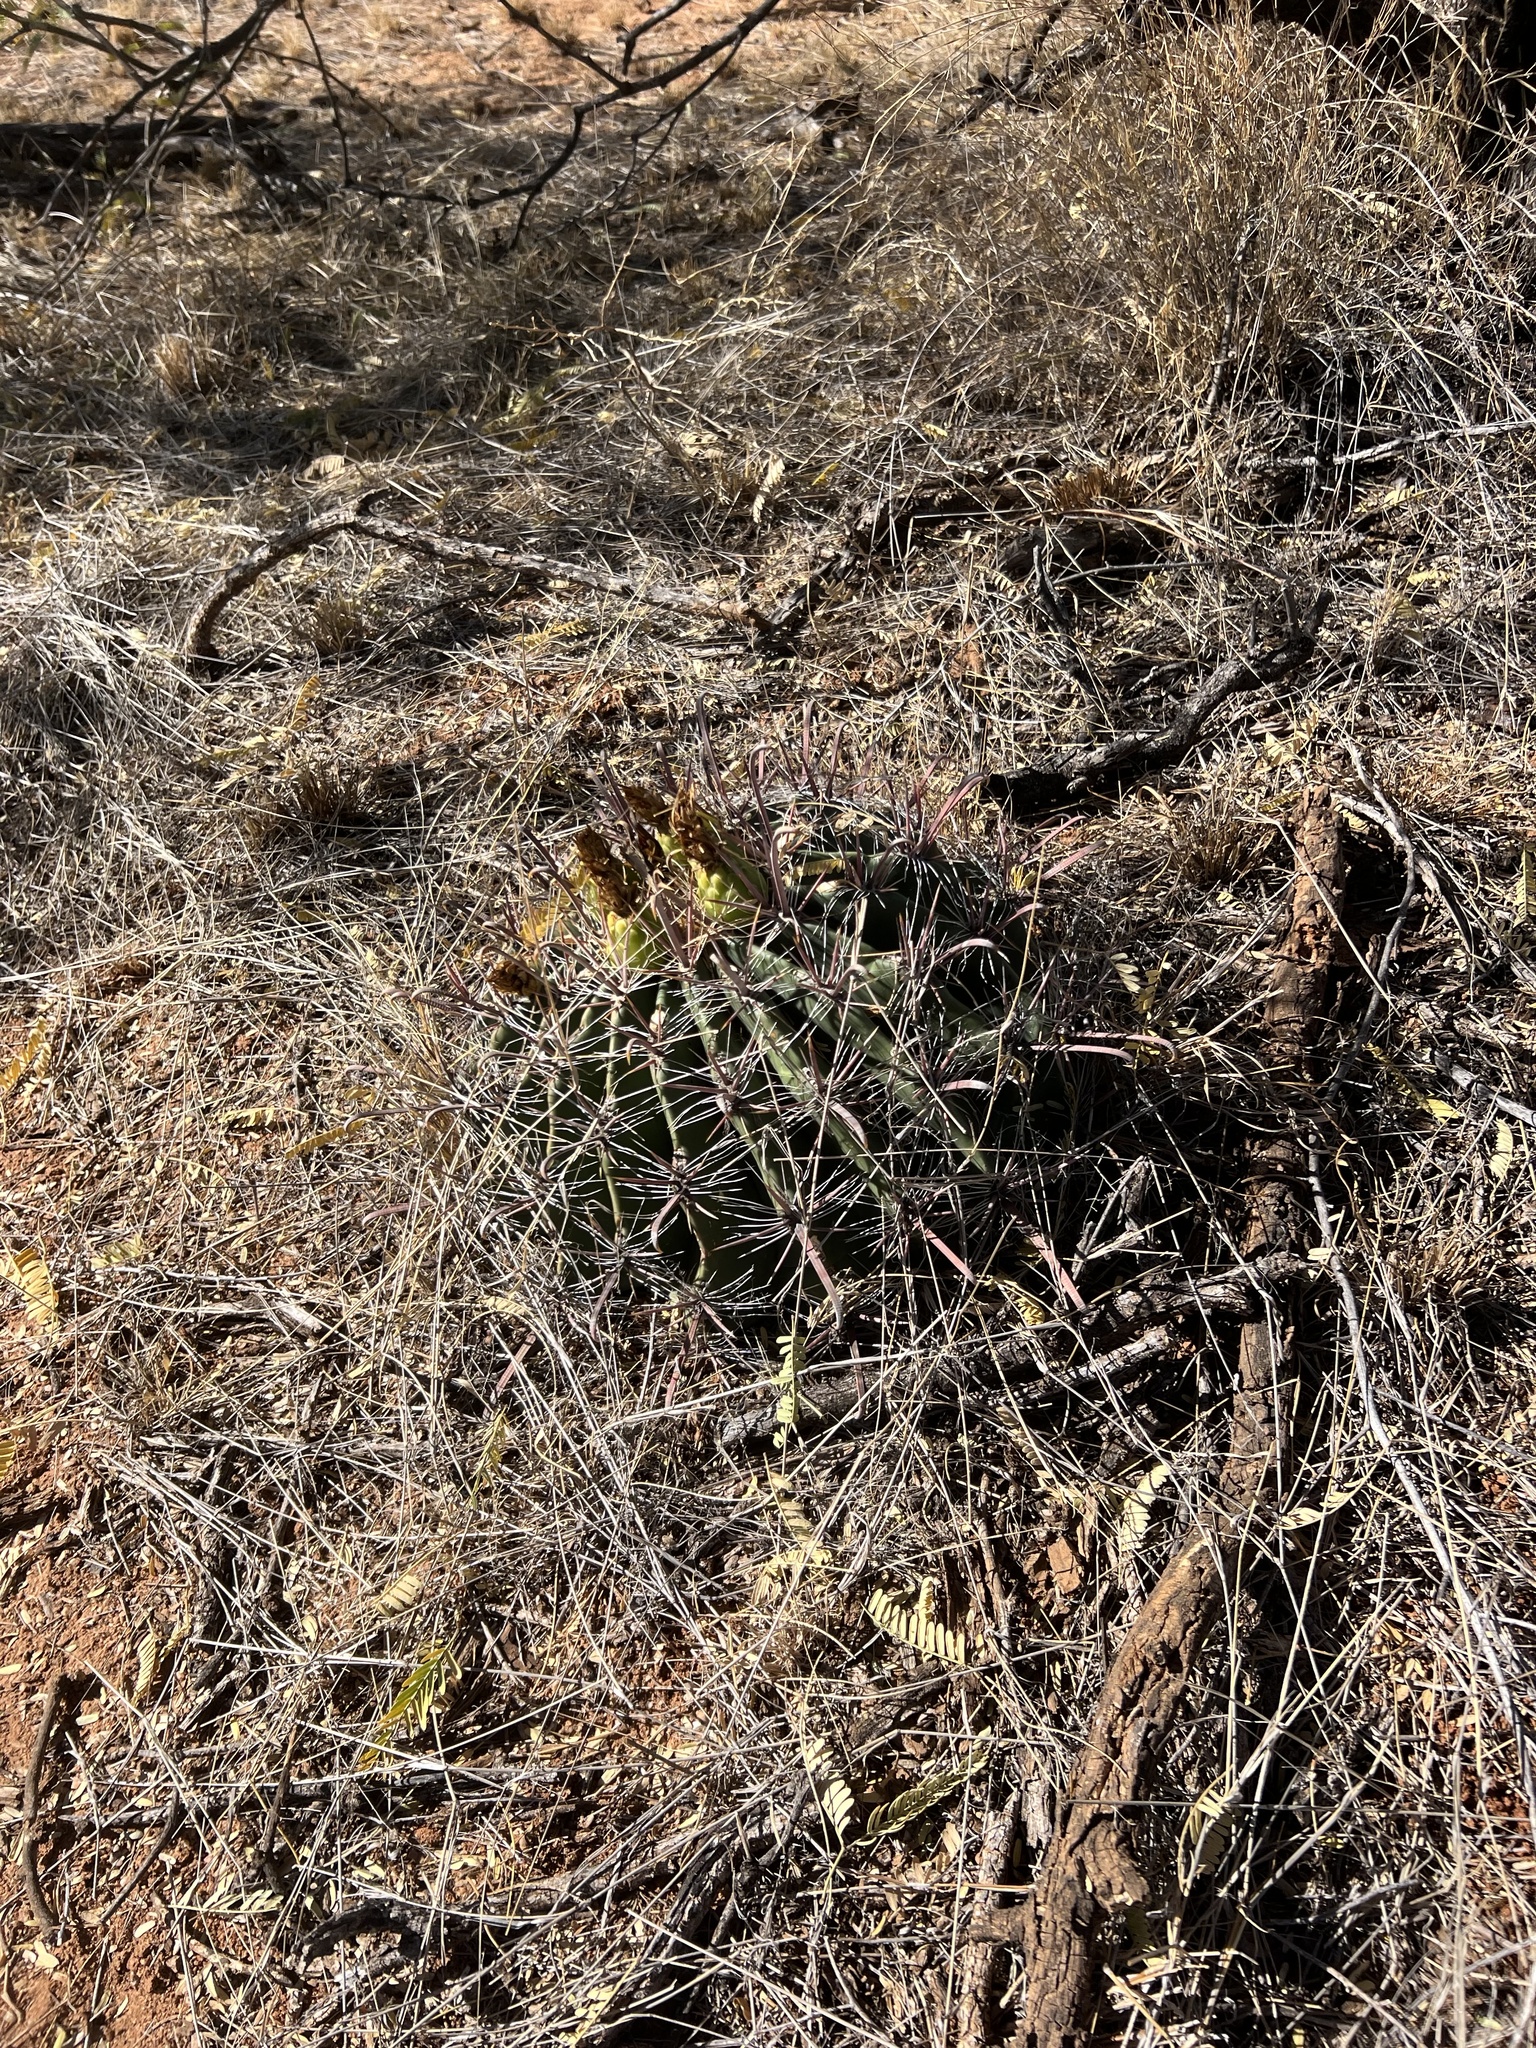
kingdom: Plantae
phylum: Tracheophyta
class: Magnoliopsida
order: Caryophyllales
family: Cactaceae
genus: Ferocactus
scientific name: Ferocactus wislizeni
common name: Candy barrel cactus
